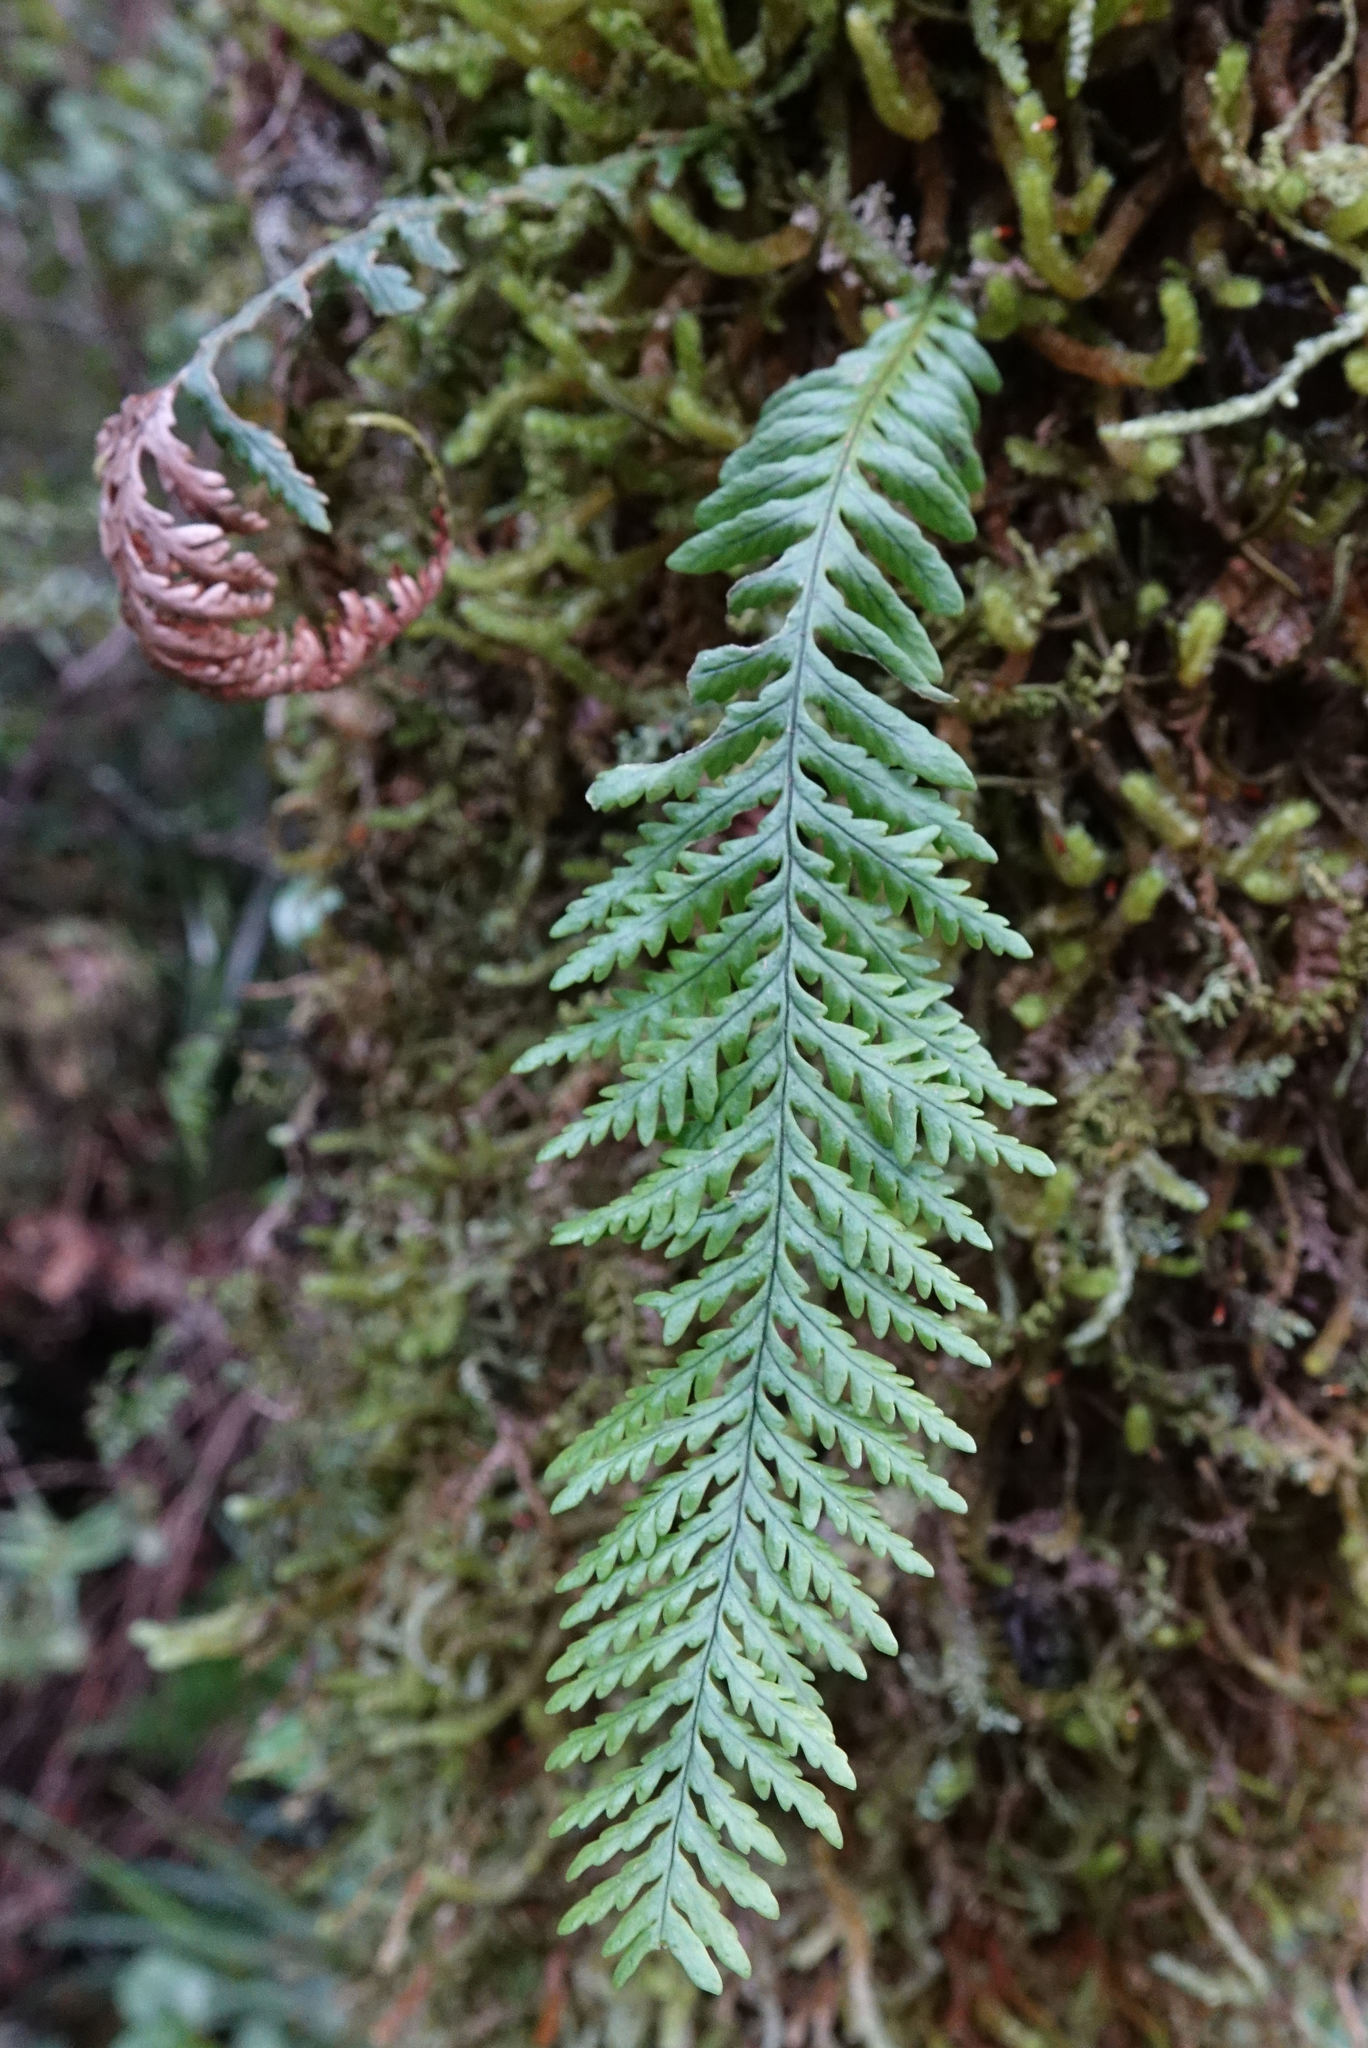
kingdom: Plantae
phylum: Tracheophyta
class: Polypodiopsida
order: Polypodiales
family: Polypodiaceae
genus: Notogrammitis
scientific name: Notogrammitis heterophylla
